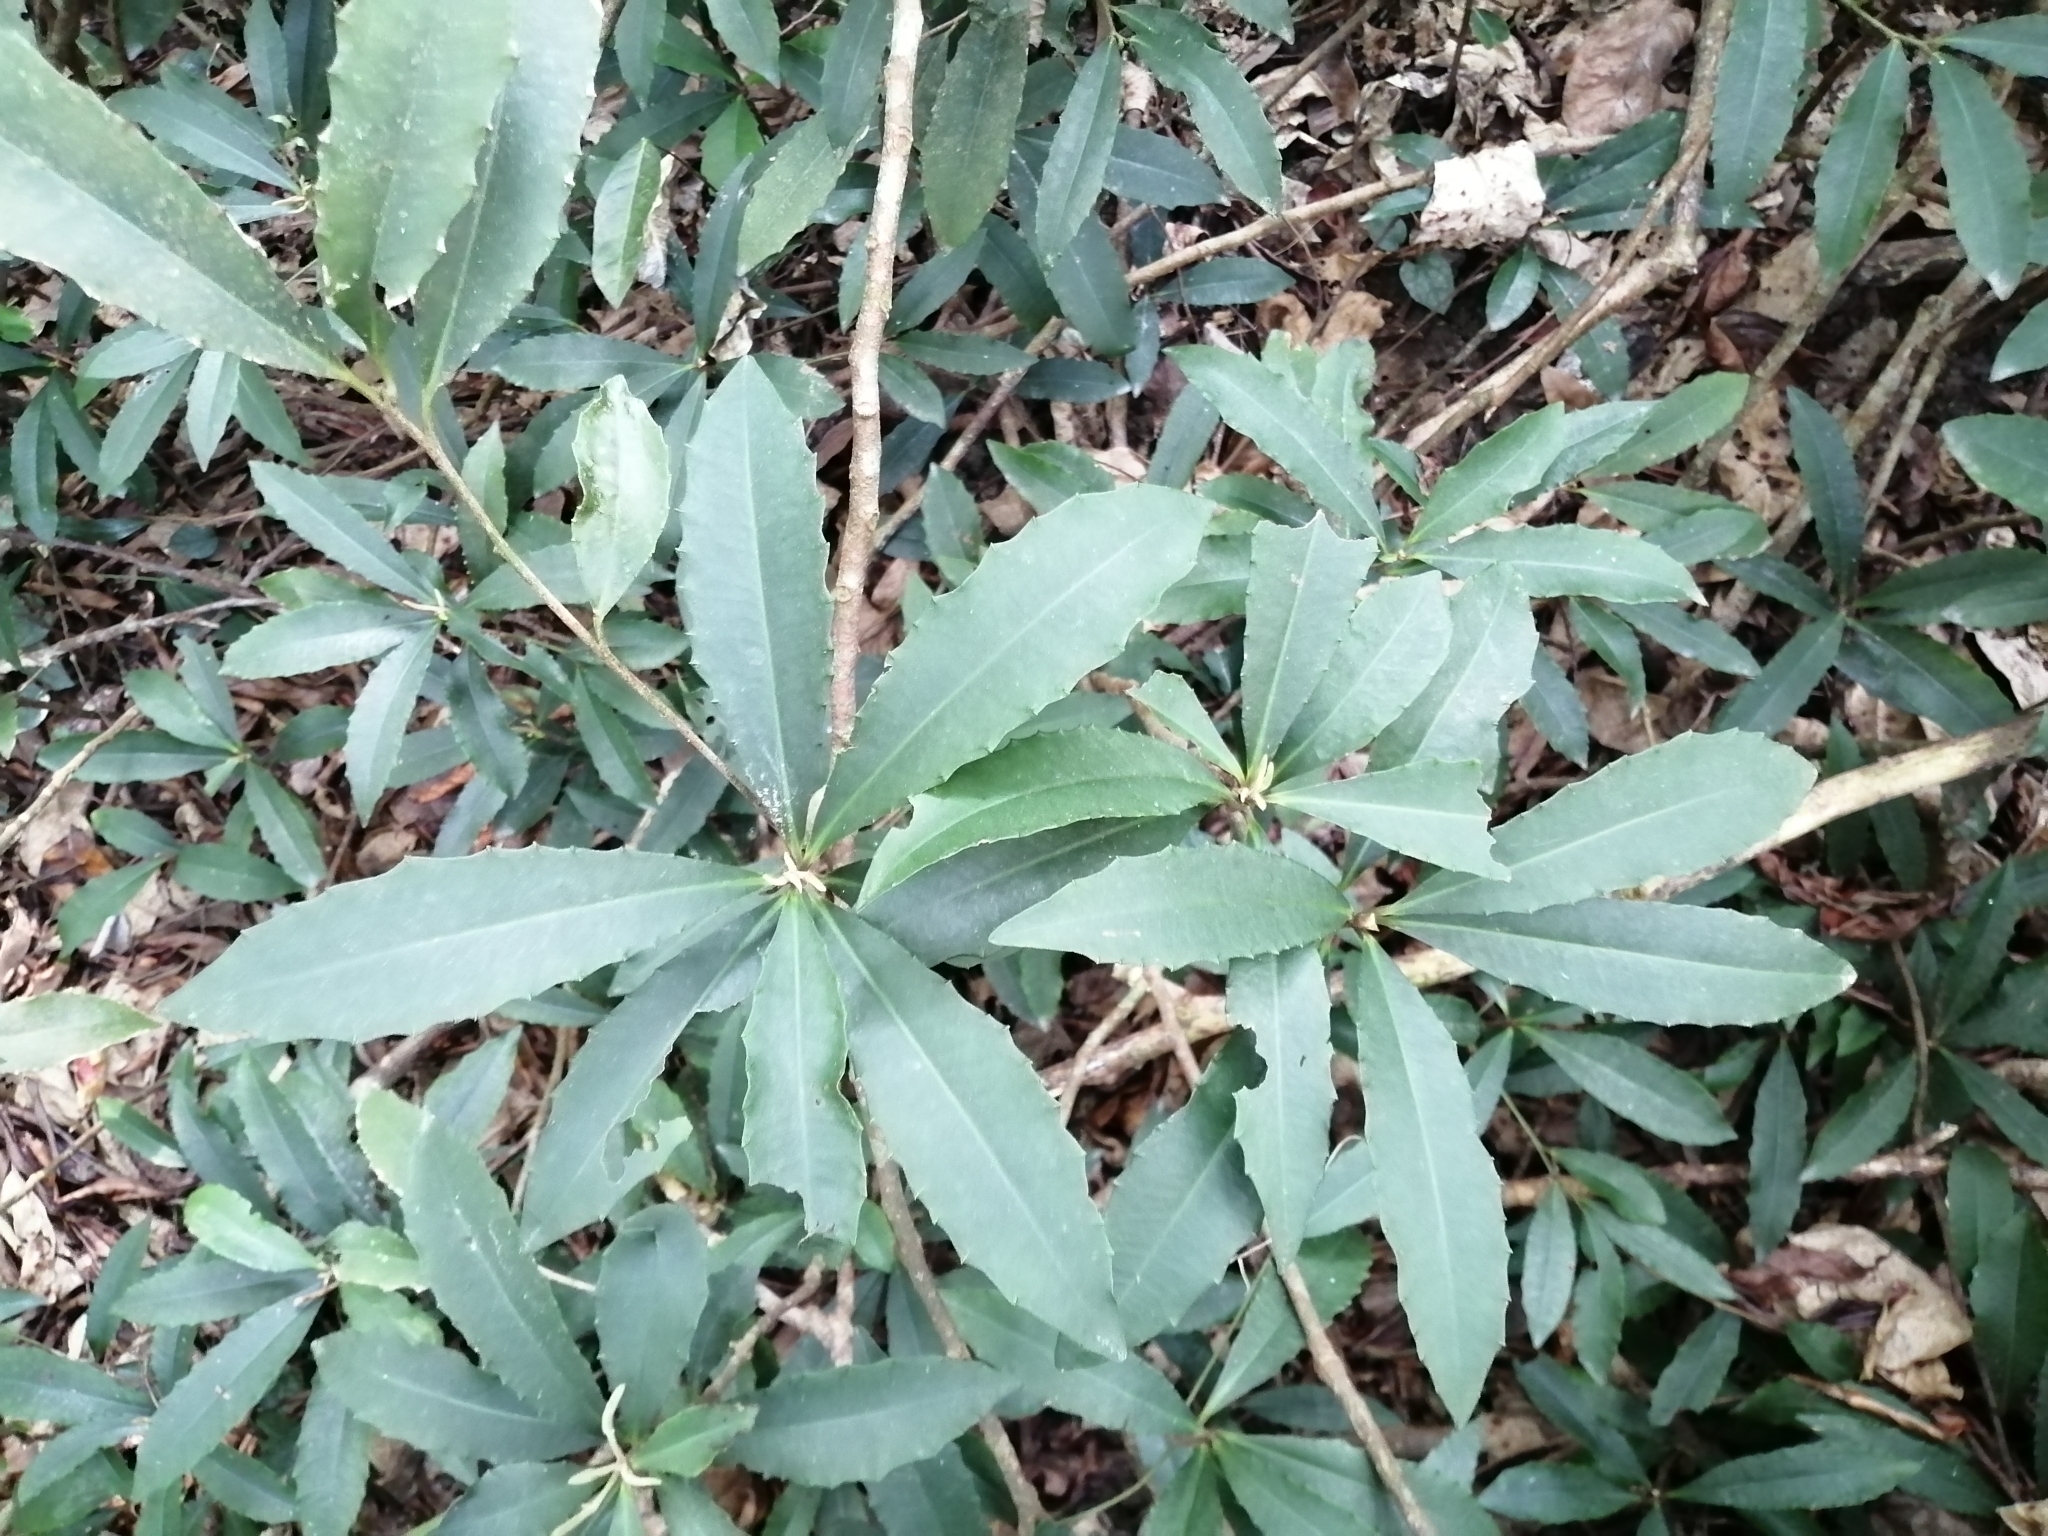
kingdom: Plantae
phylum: Tracheophyta
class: Magnoliopsida
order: Ericales
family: Primulaceae
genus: Ardisia
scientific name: Ardisia cornudentata
